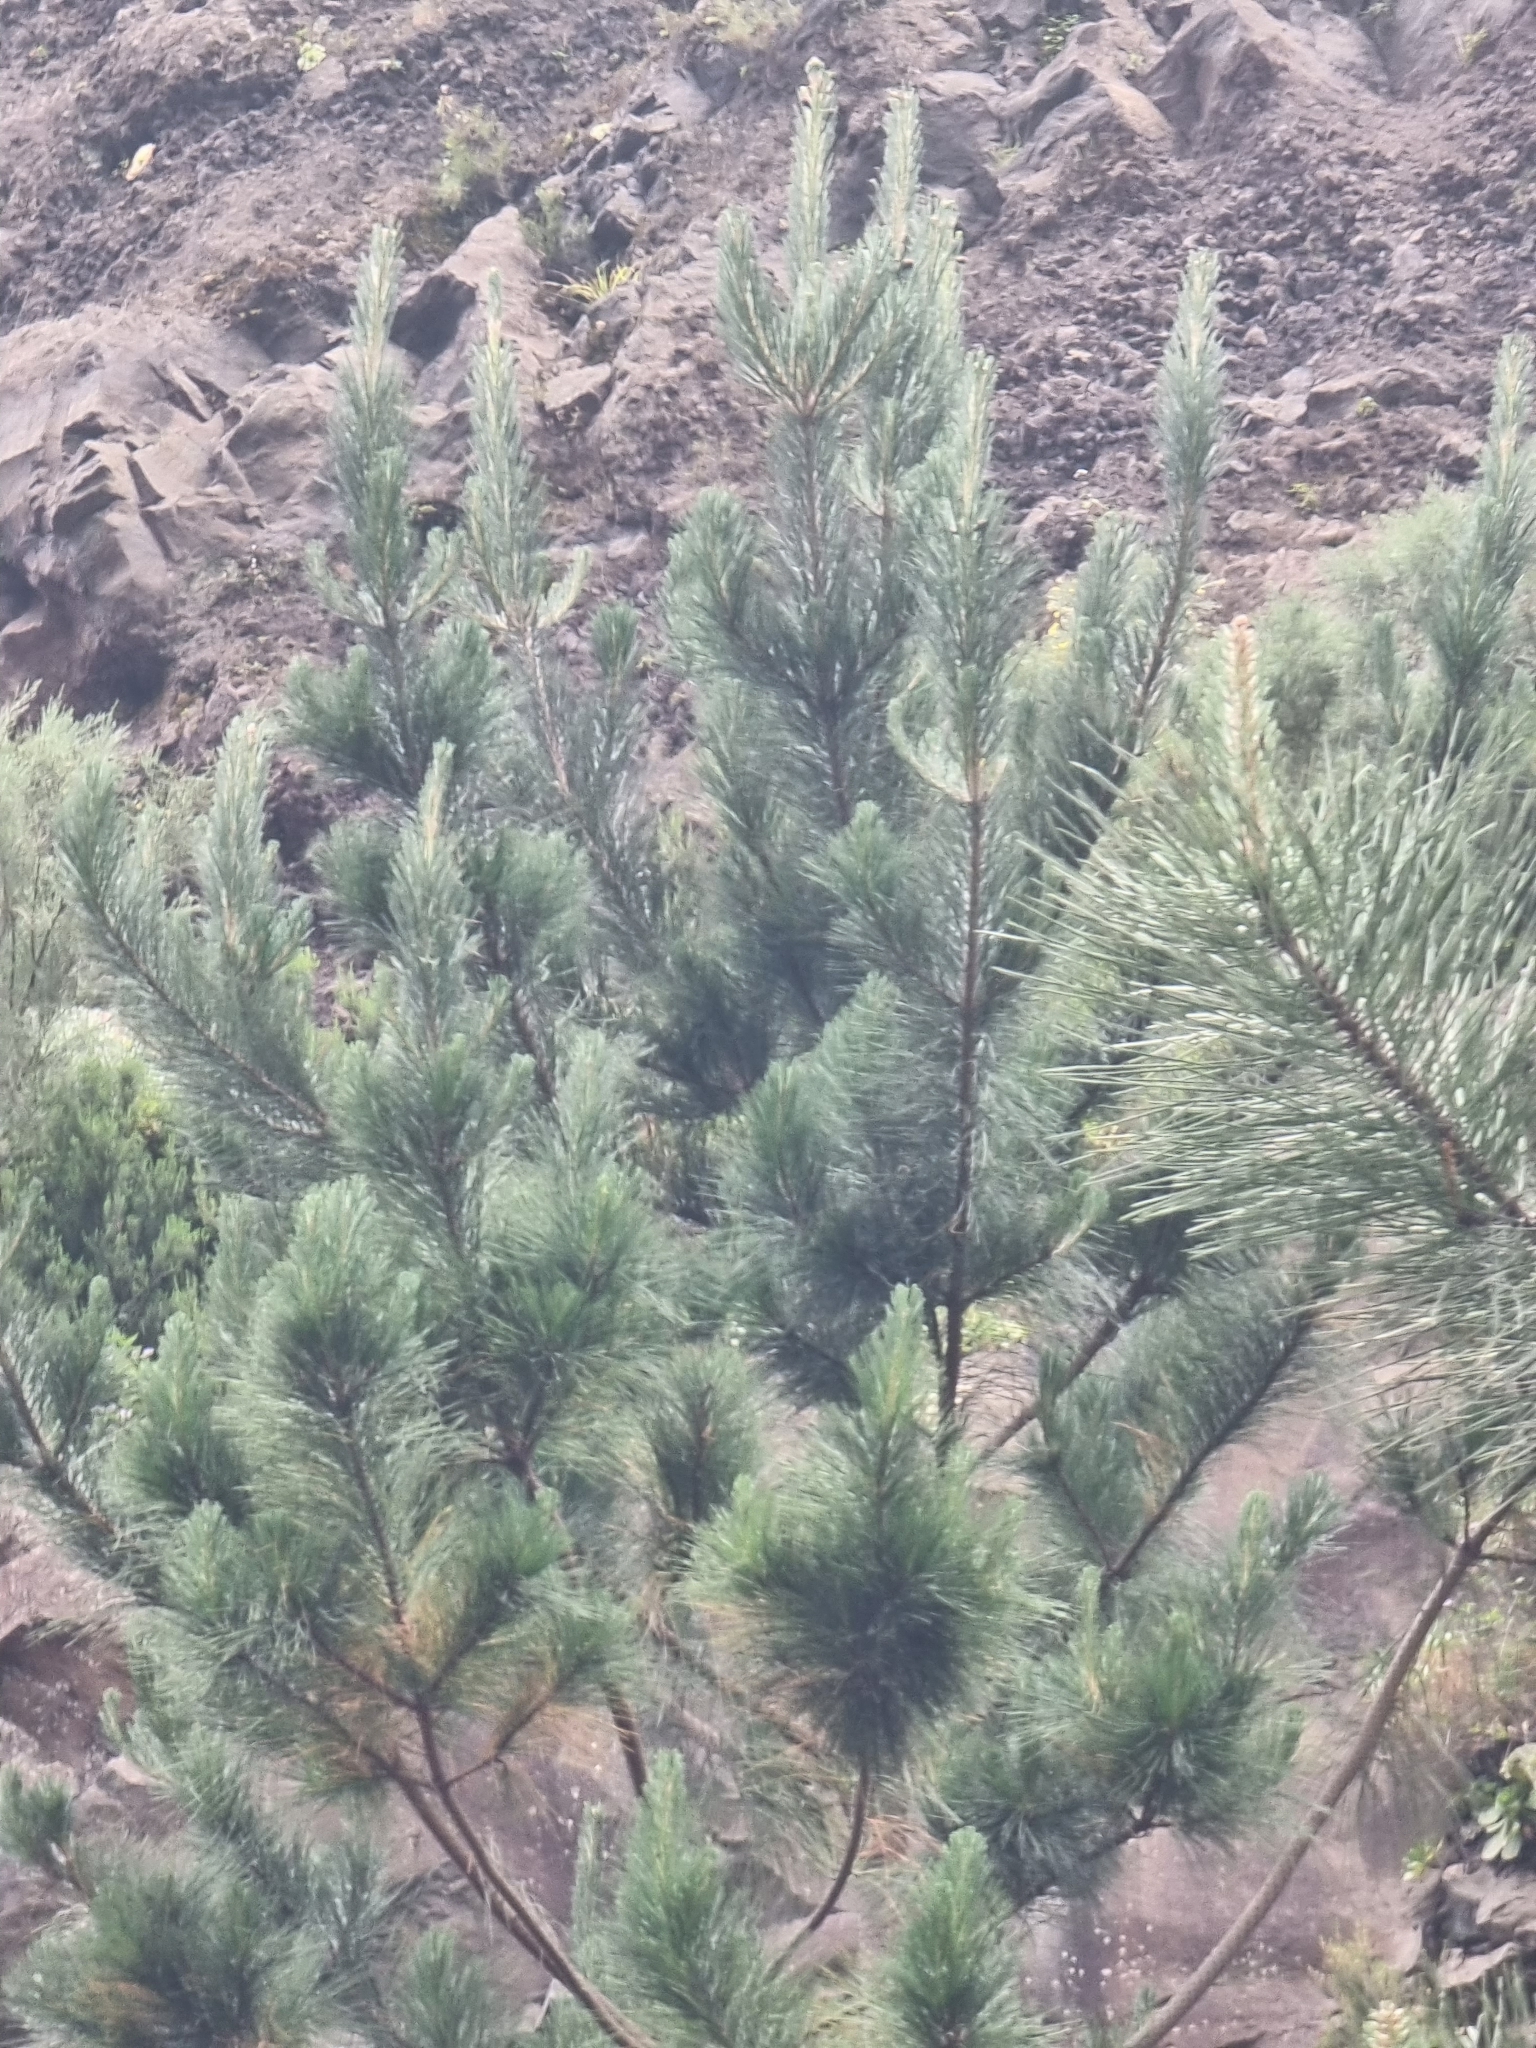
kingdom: Plantae
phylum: Tracheophyta
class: Pinopsida
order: Pinales
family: Pinaceae
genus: Pinus
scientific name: Pinus pinaster
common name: Maritime pine
